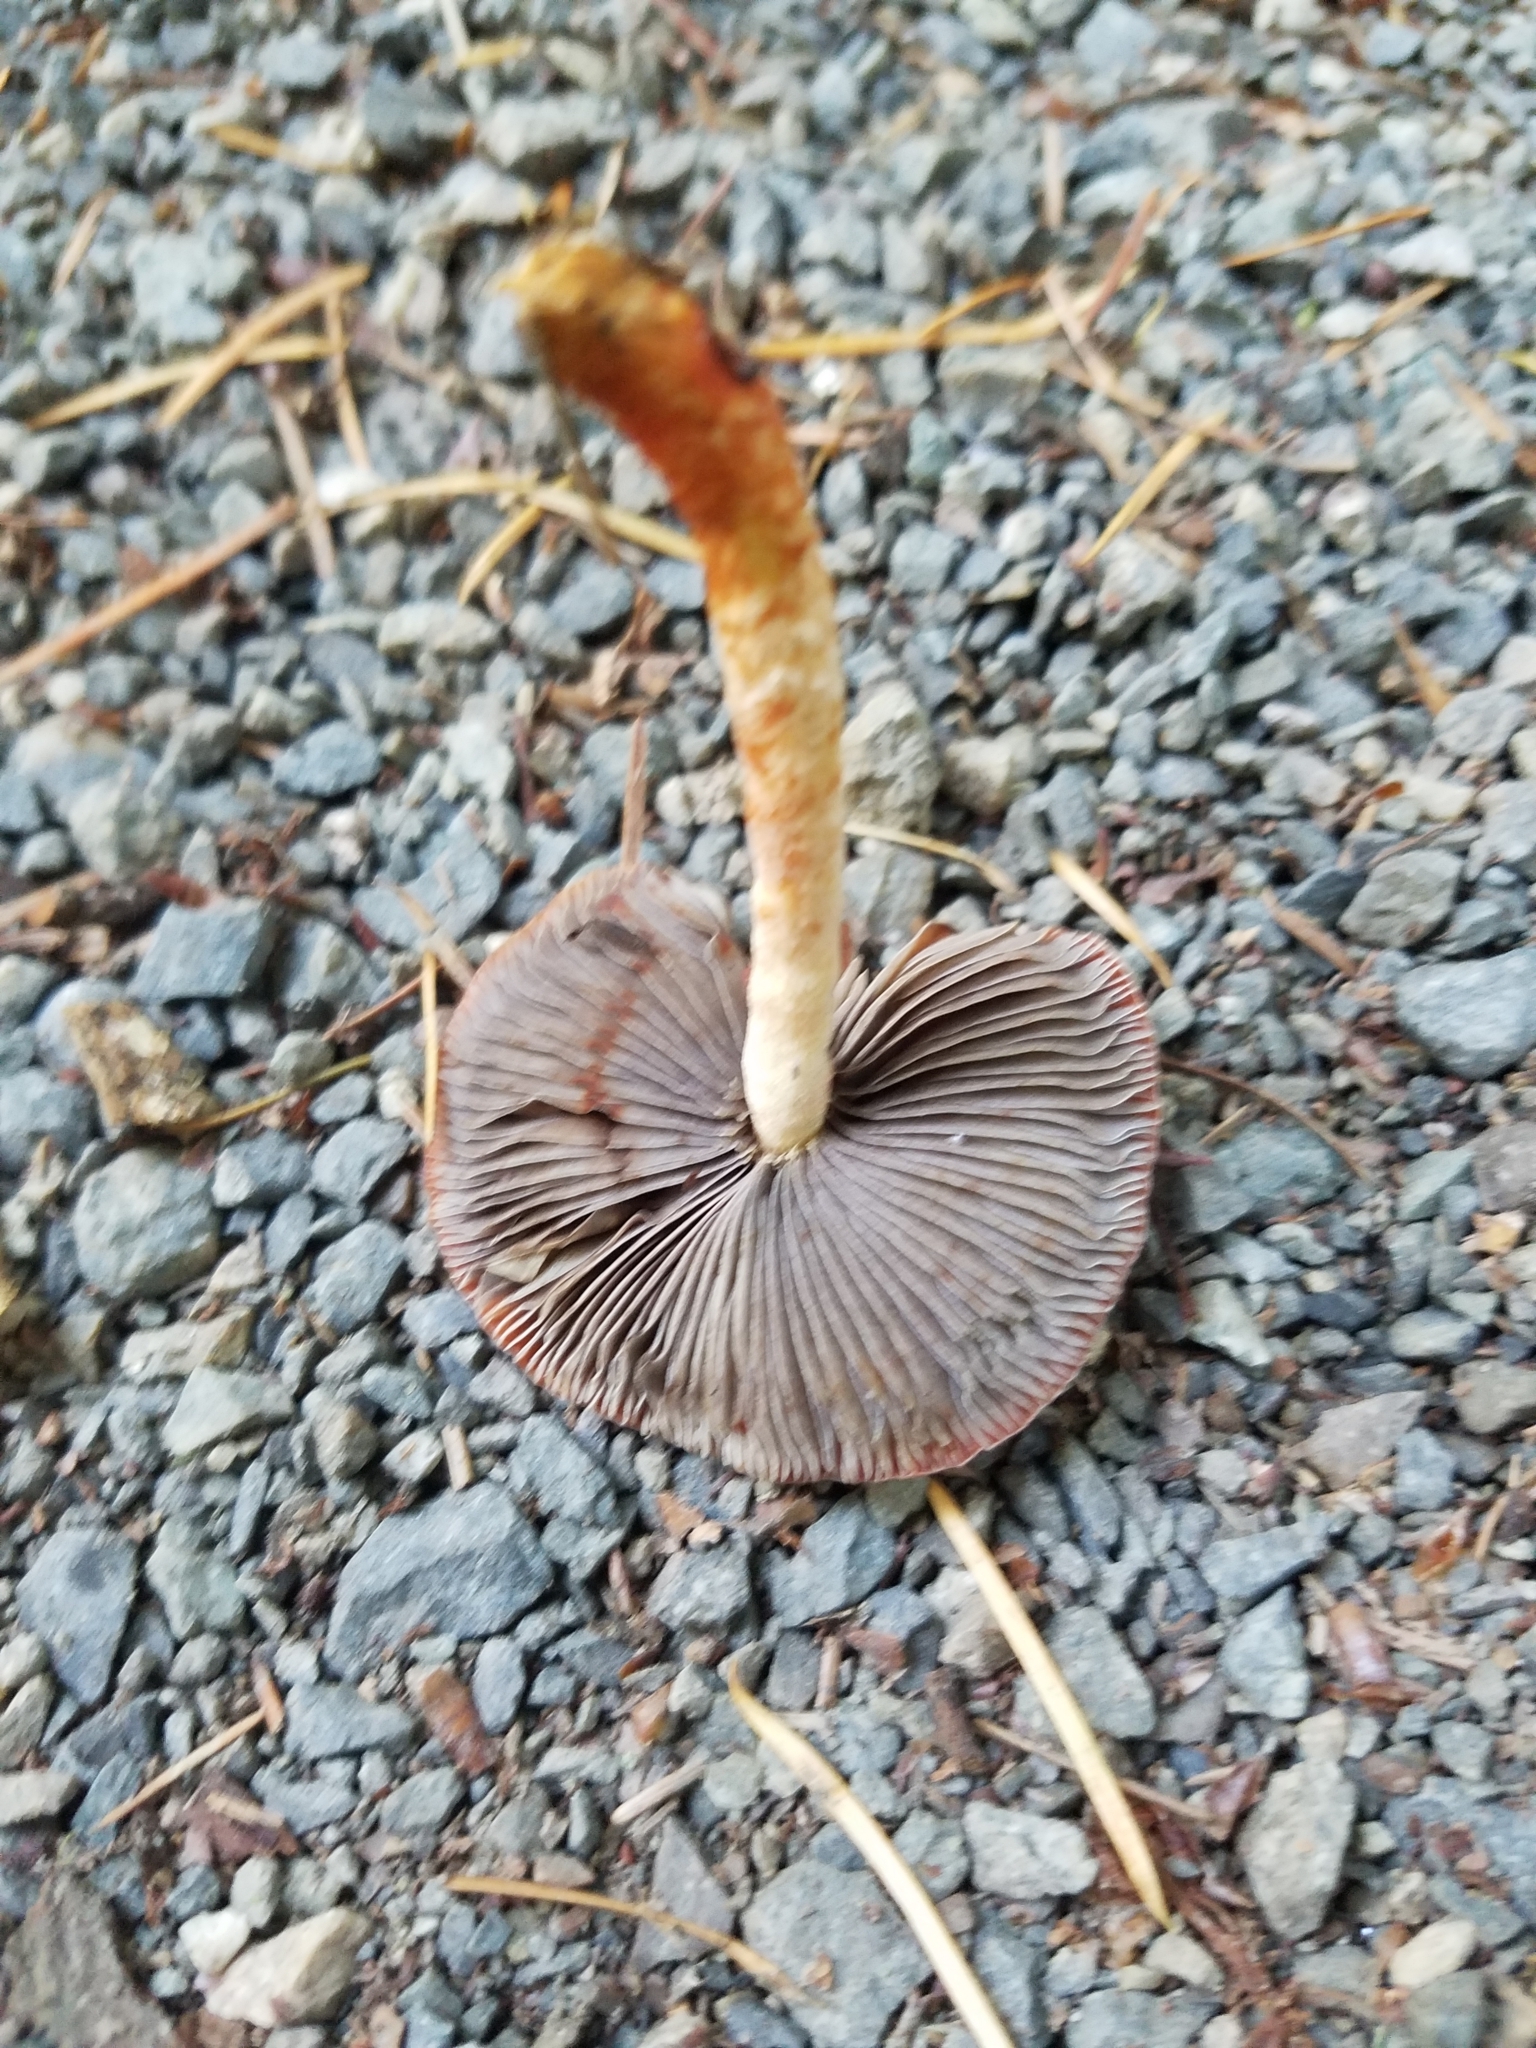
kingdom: Fungi
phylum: Basidiomycota
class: Agaricomycetes
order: Agaricales
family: Strophariaceae
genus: Leratiomyces
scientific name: Leratiomyces ceres
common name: Redlead roundhead
